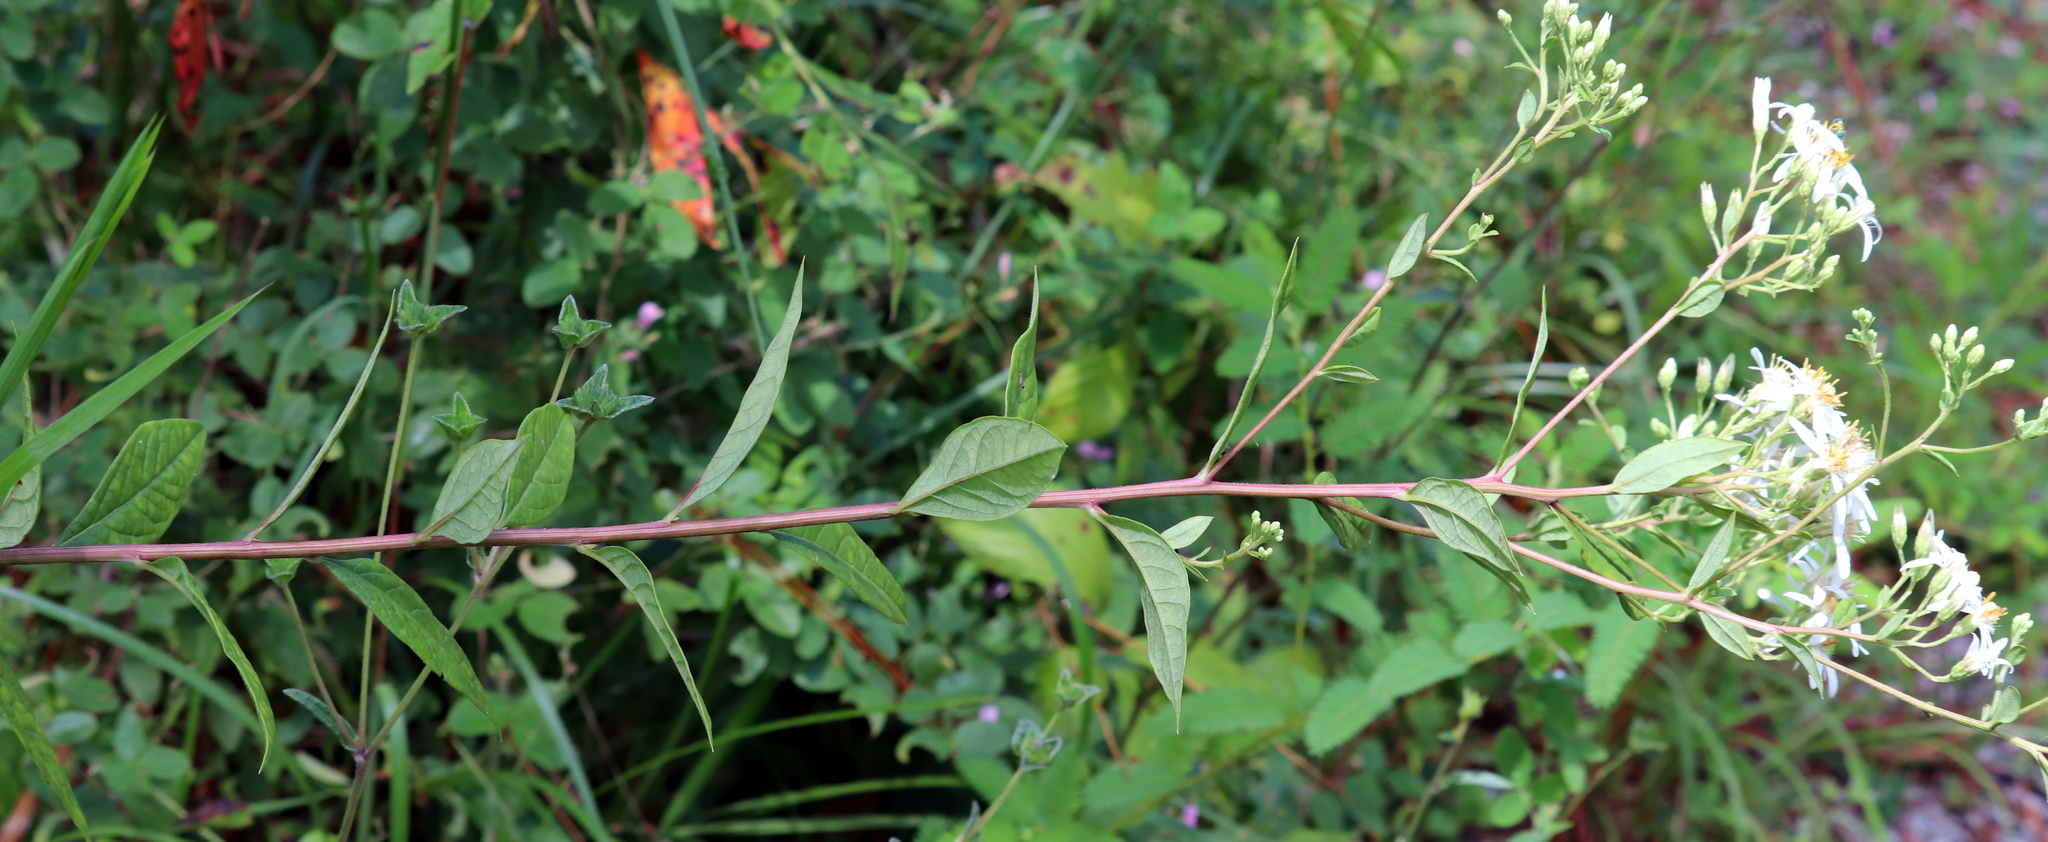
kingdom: Plantae
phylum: Tracheophyta
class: Magnoliopsida
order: Asterales
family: Asteraceae
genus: Doellingeria
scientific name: Doellingeria sericocarpoides
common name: Southern tall flat-top aster
